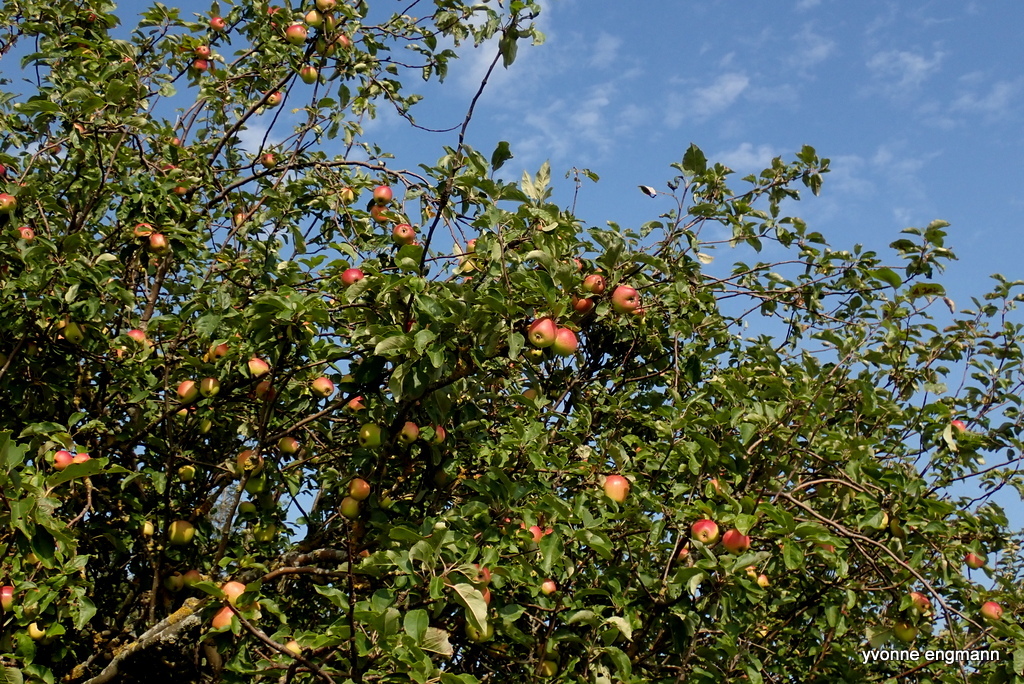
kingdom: Plantae
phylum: Tracheophyta
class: Magnoliopsida
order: Rosales
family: Rosaceae
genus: Malus
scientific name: Malus domestica
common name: Apple
